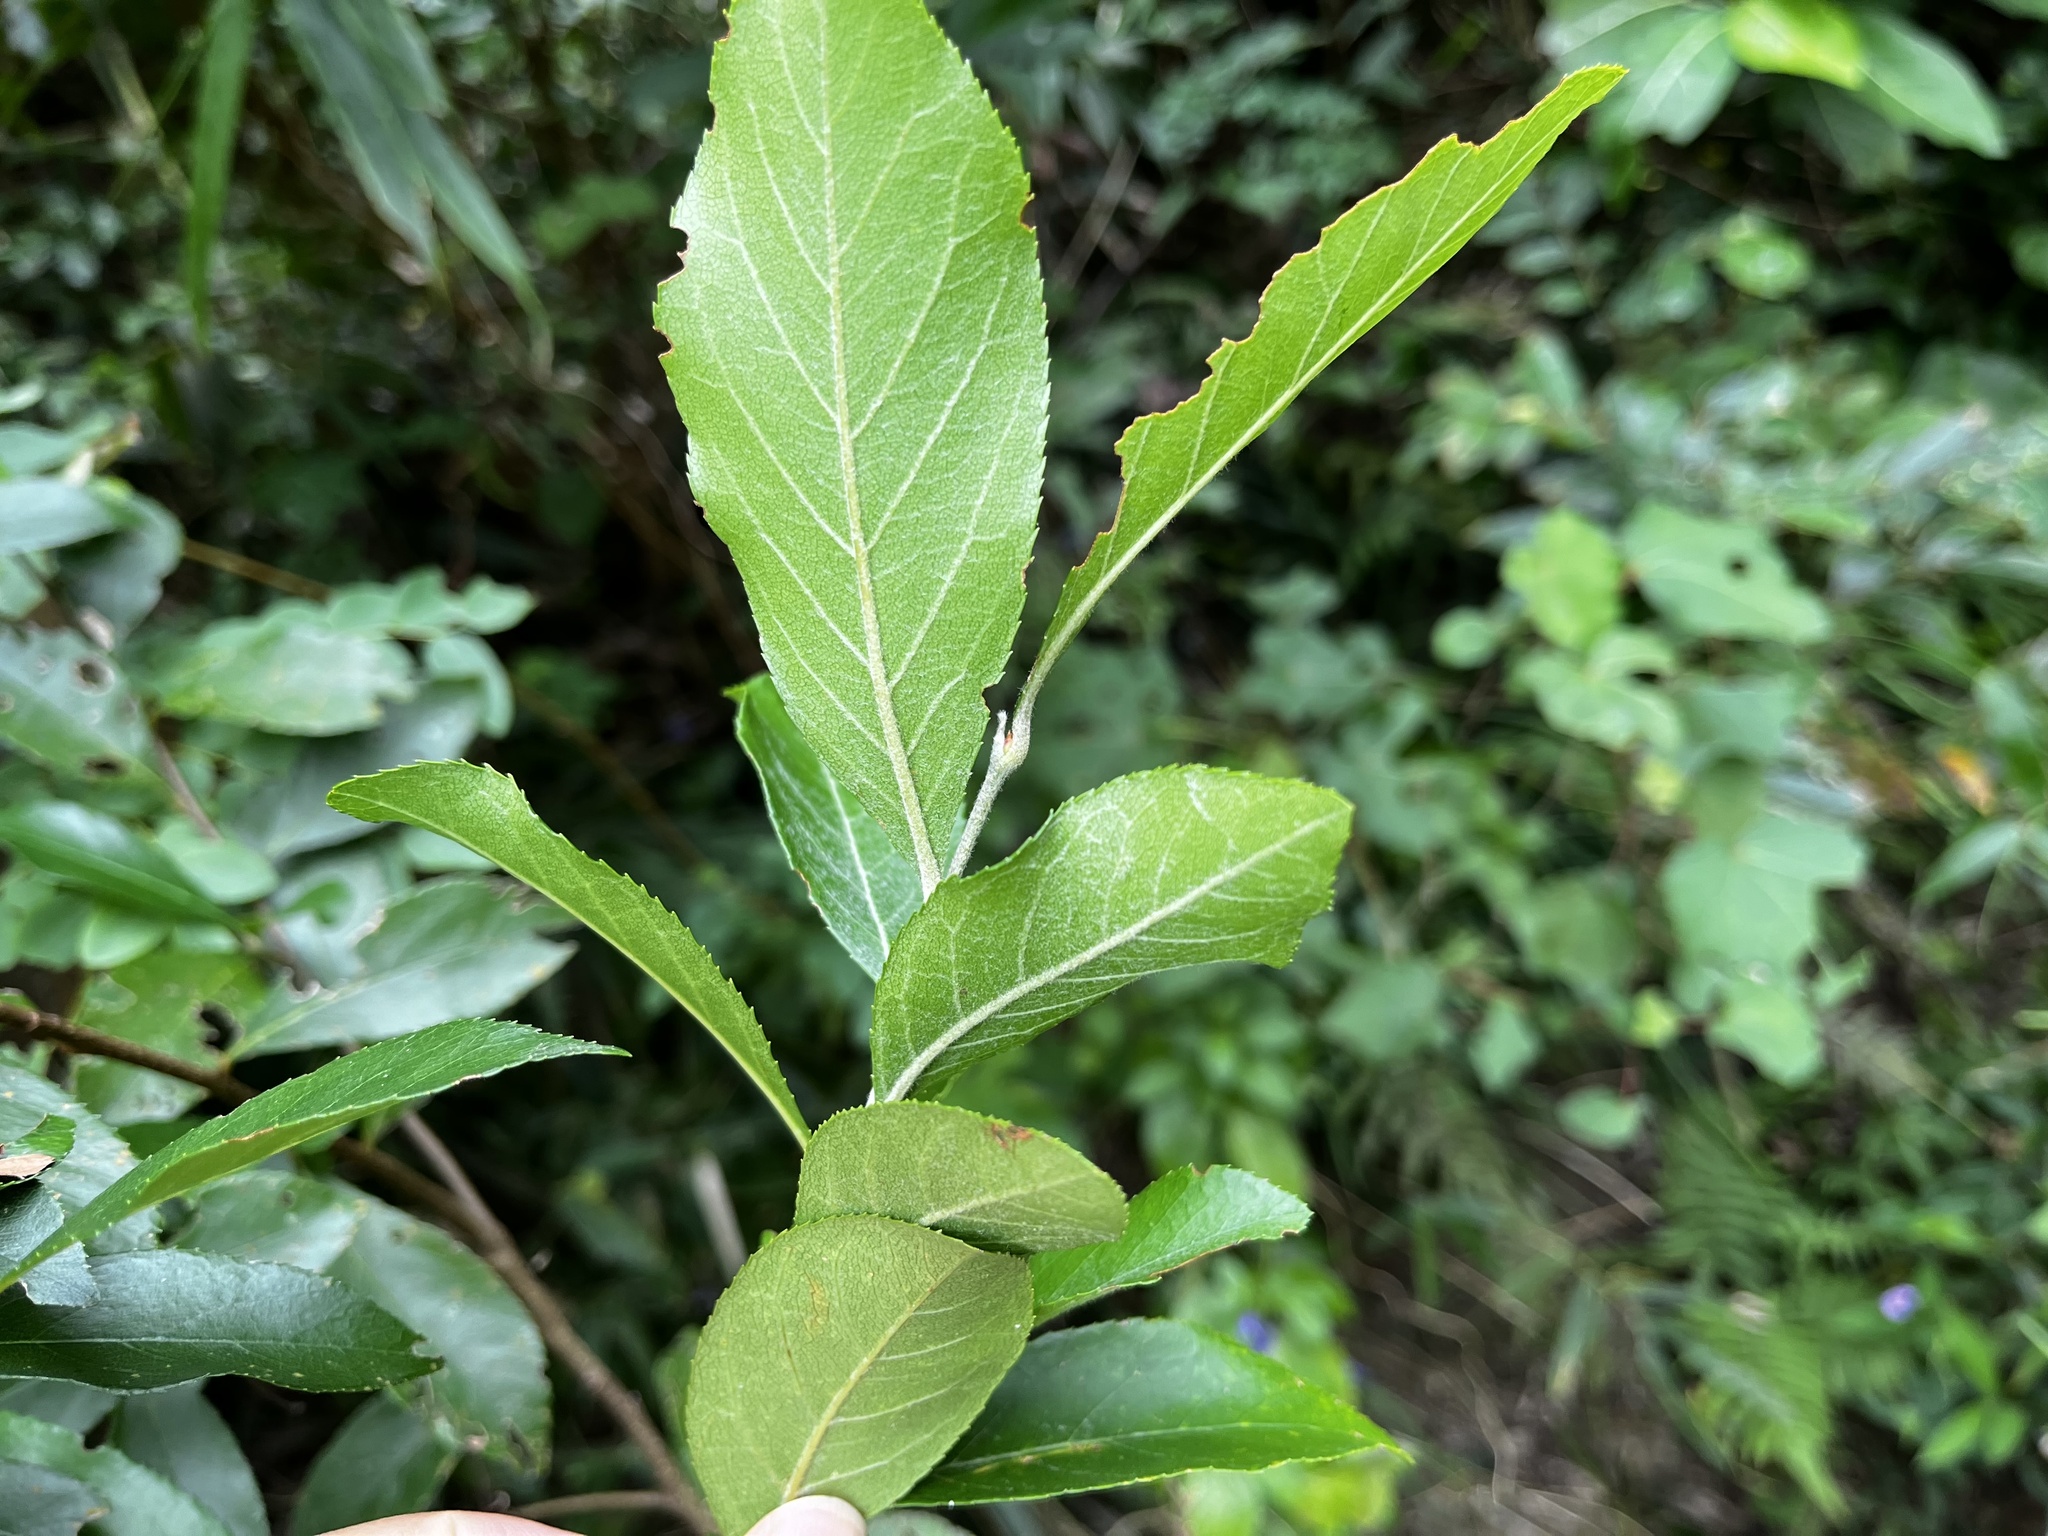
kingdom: Plantae
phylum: Tracheophyta
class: Magnoliopsida
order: Rosales
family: Rosaceae
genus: Pourthiaea
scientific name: Pourthiaea arguta
